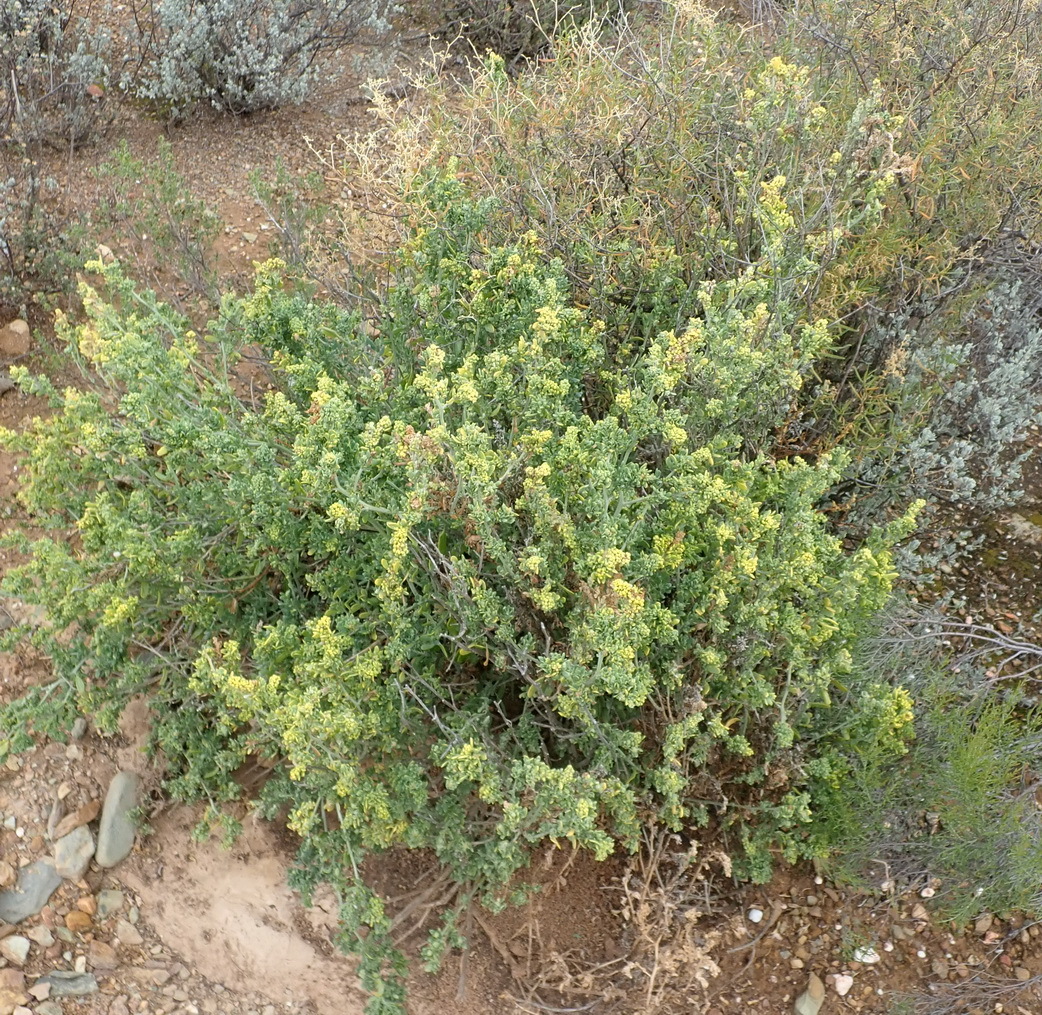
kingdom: Plantae
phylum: Tracheophyta
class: Magnoliopsida
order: Caryophyllales
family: Amaranthaceae
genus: Exomis
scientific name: Exomis microphylla
